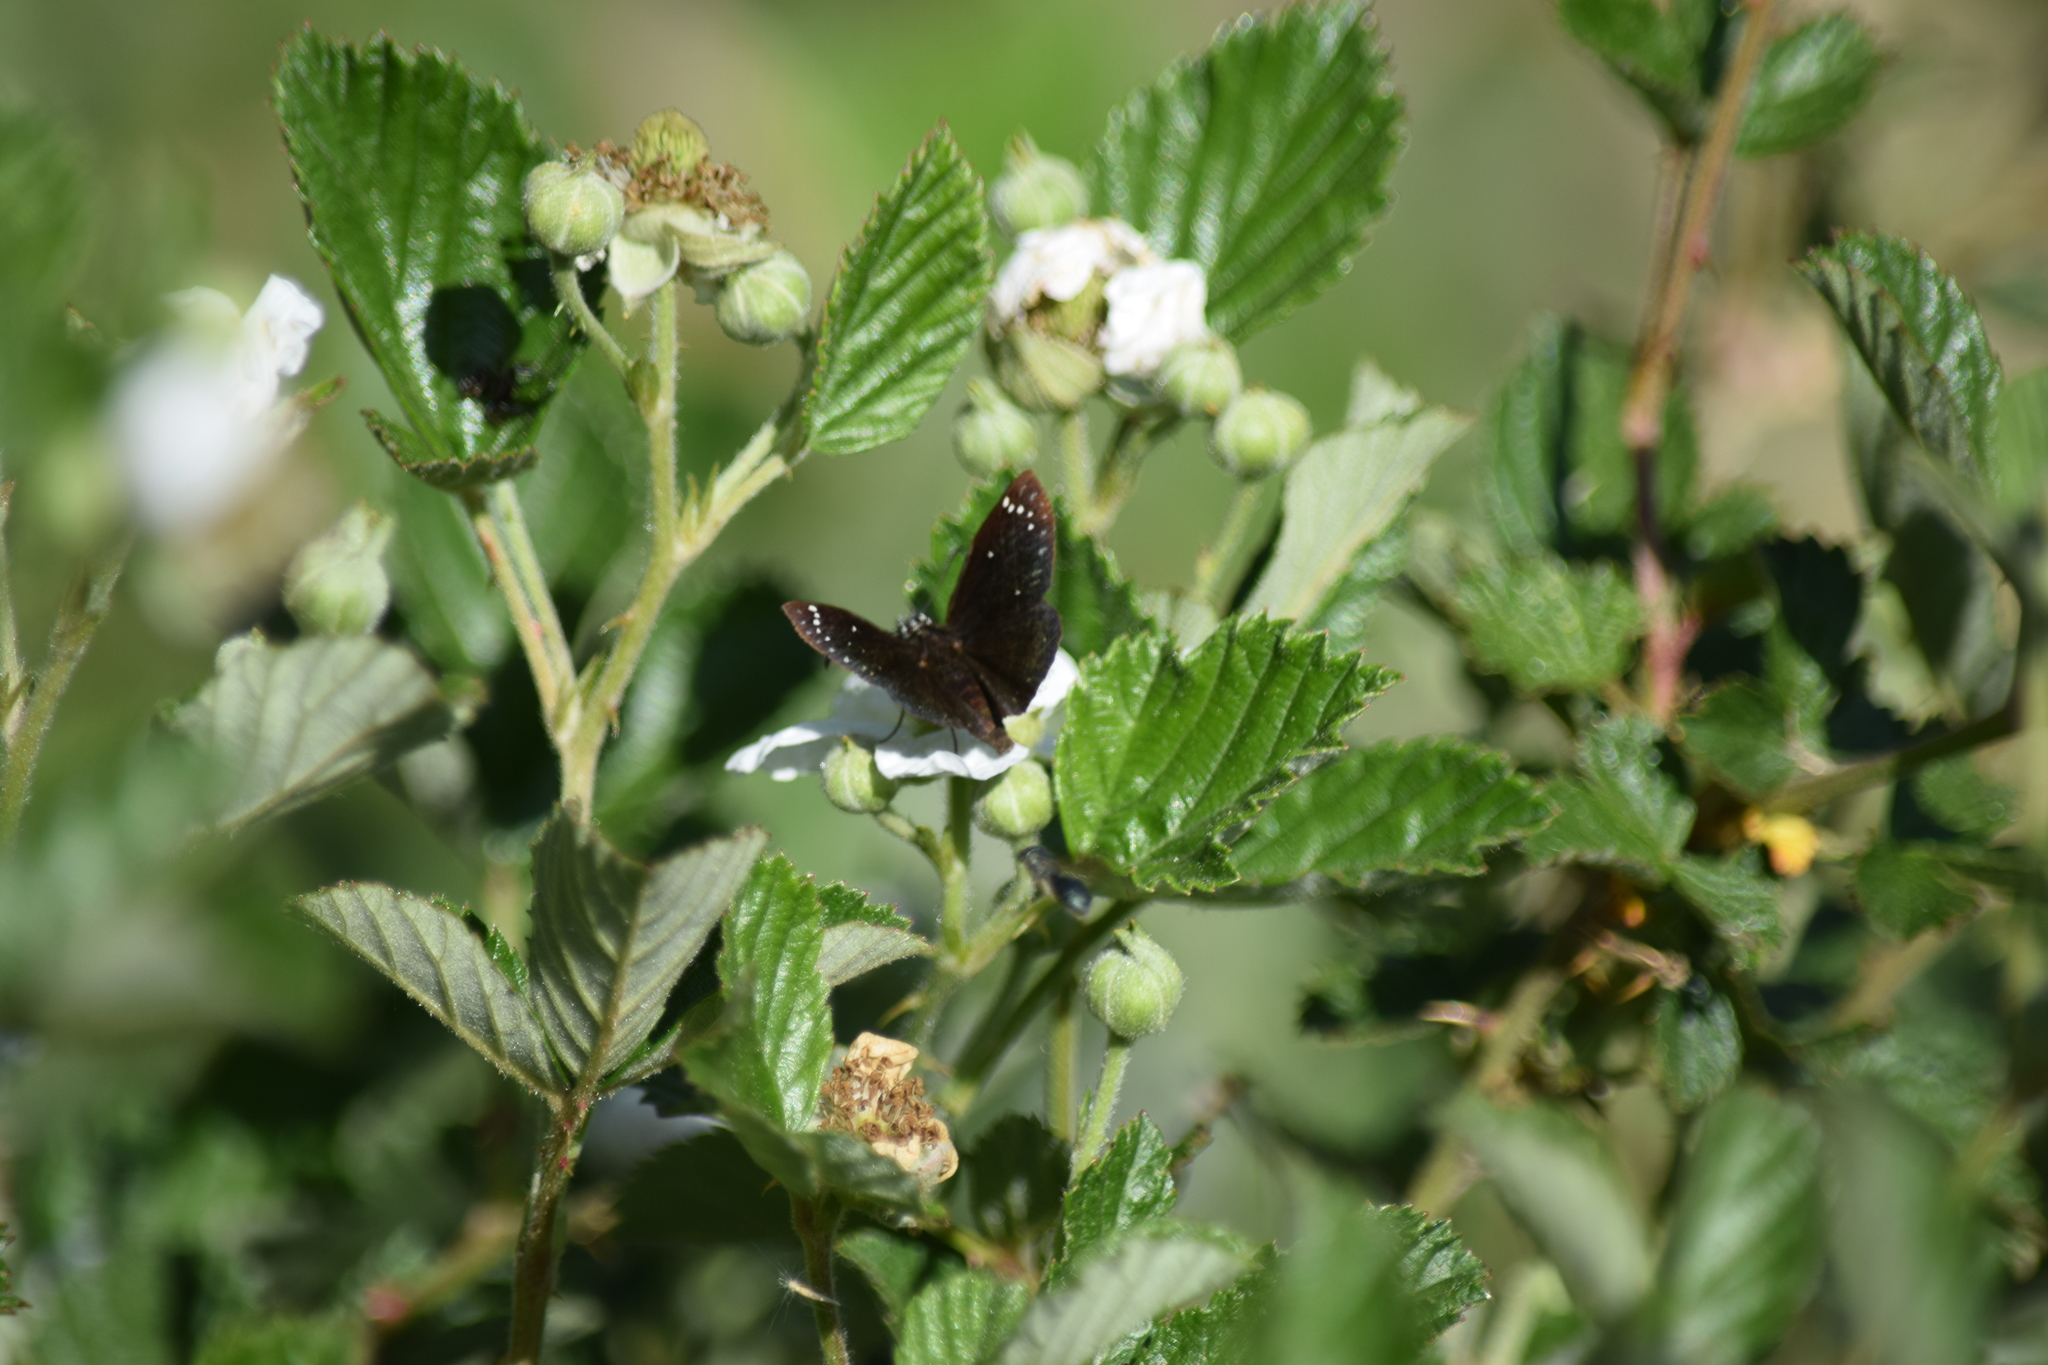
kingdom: Animalia
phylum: Arthropoda
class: Insecta
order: Lepidoptera
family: Hesperiidae
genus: Pholisora
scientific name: Pholisora catullus
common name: Common sootywing
